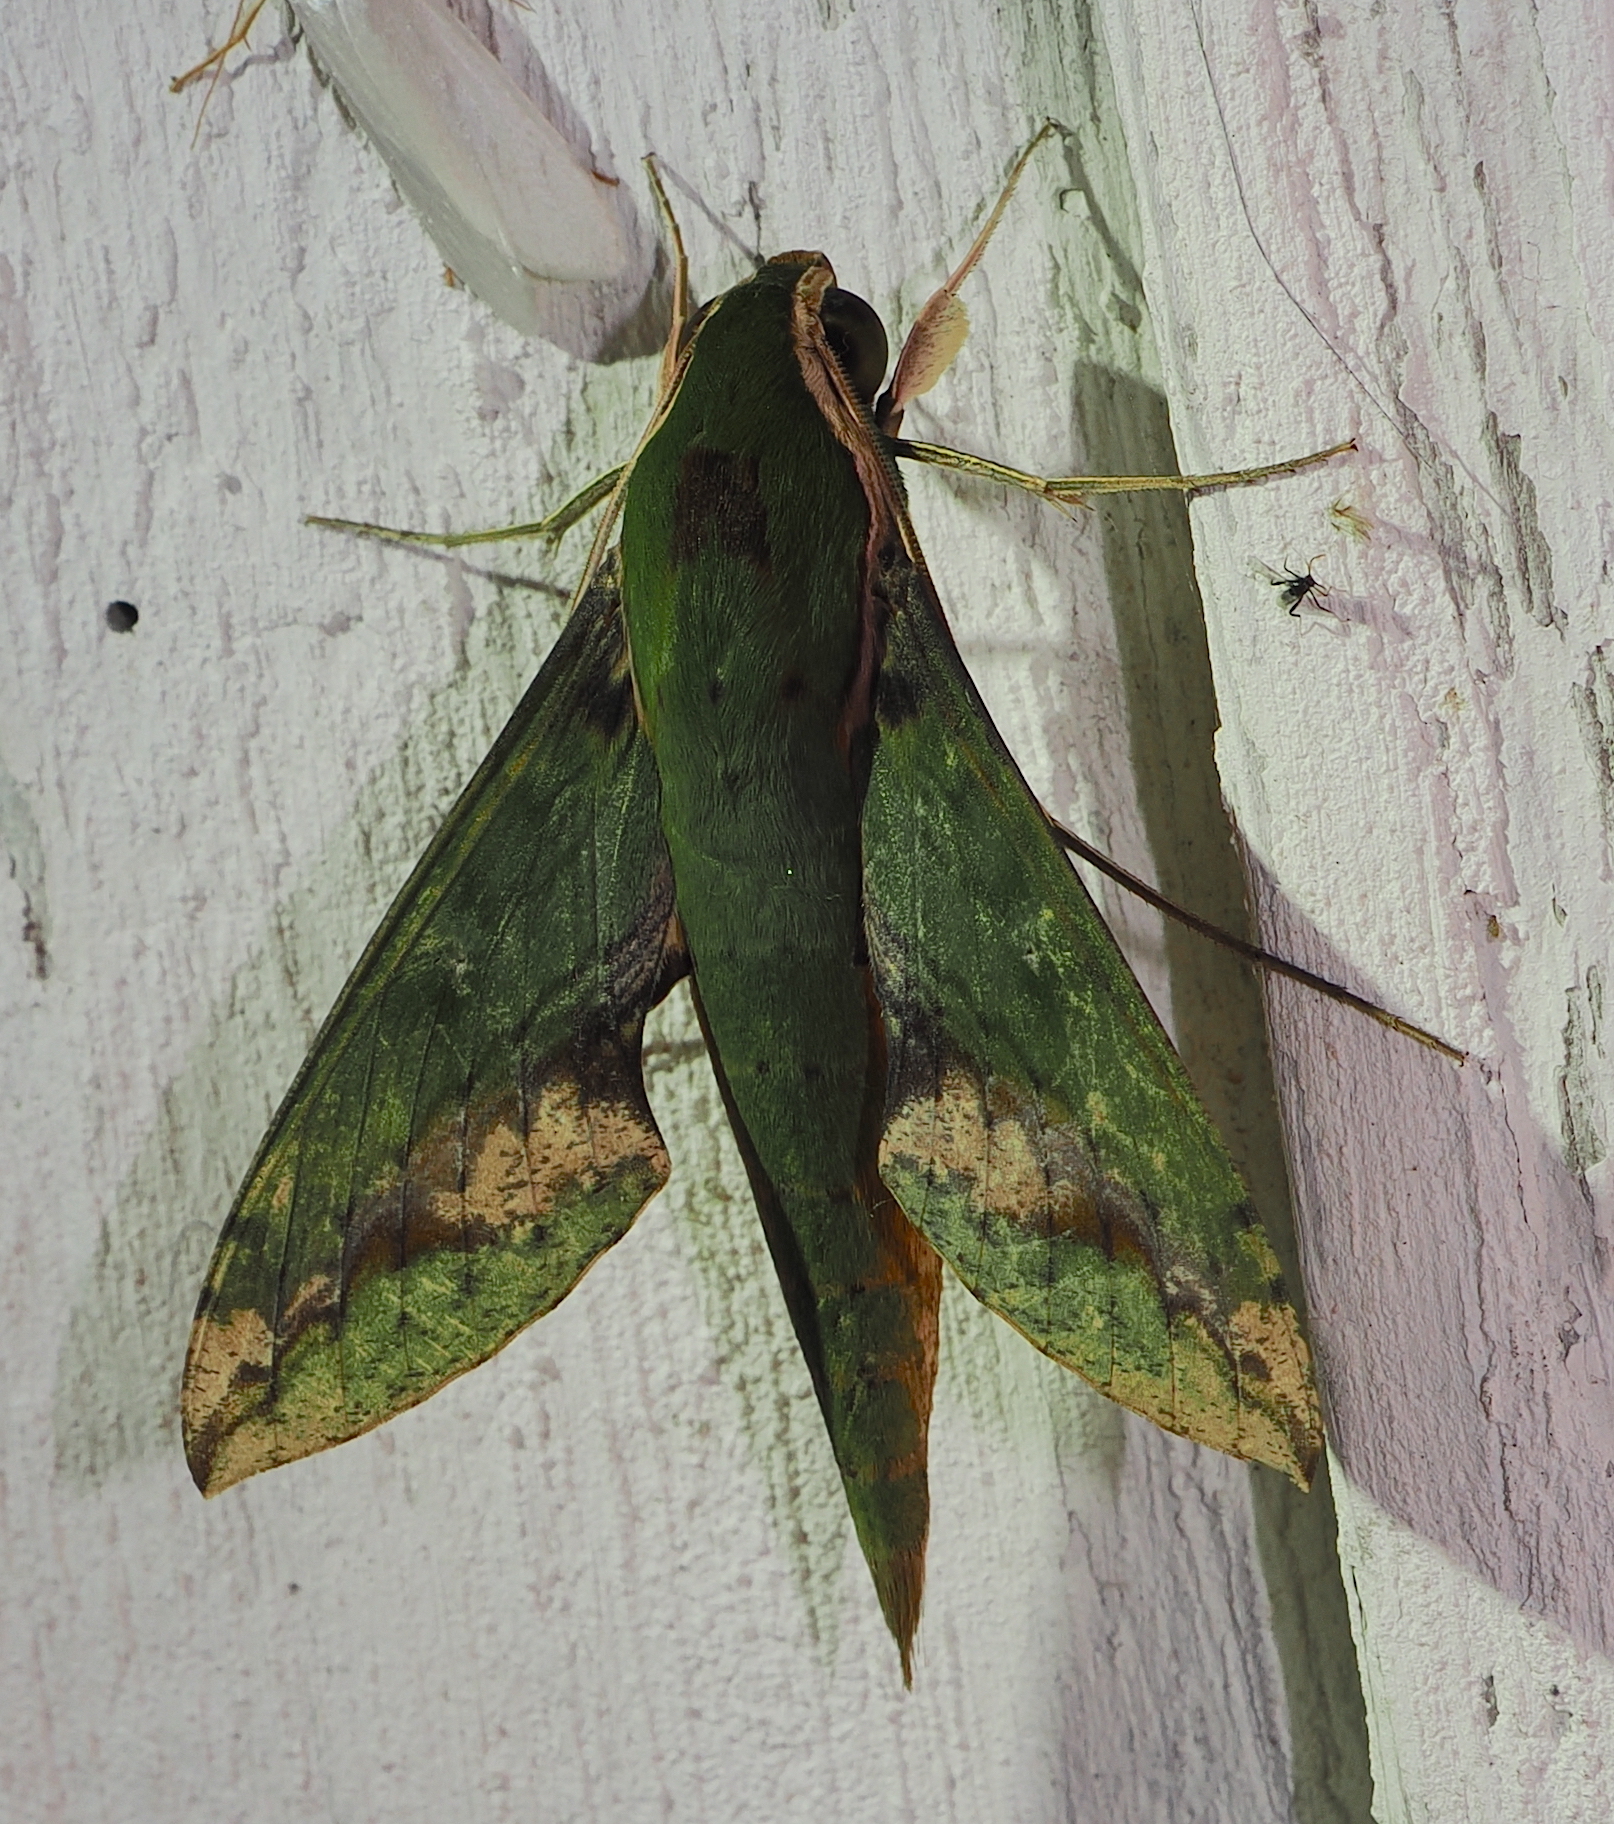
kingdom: Animalia
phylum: Arthropoda
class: Insecta
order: Lepidoptera
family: Sphingidae
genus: Xylophanes
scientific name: Xylophanes chiron
